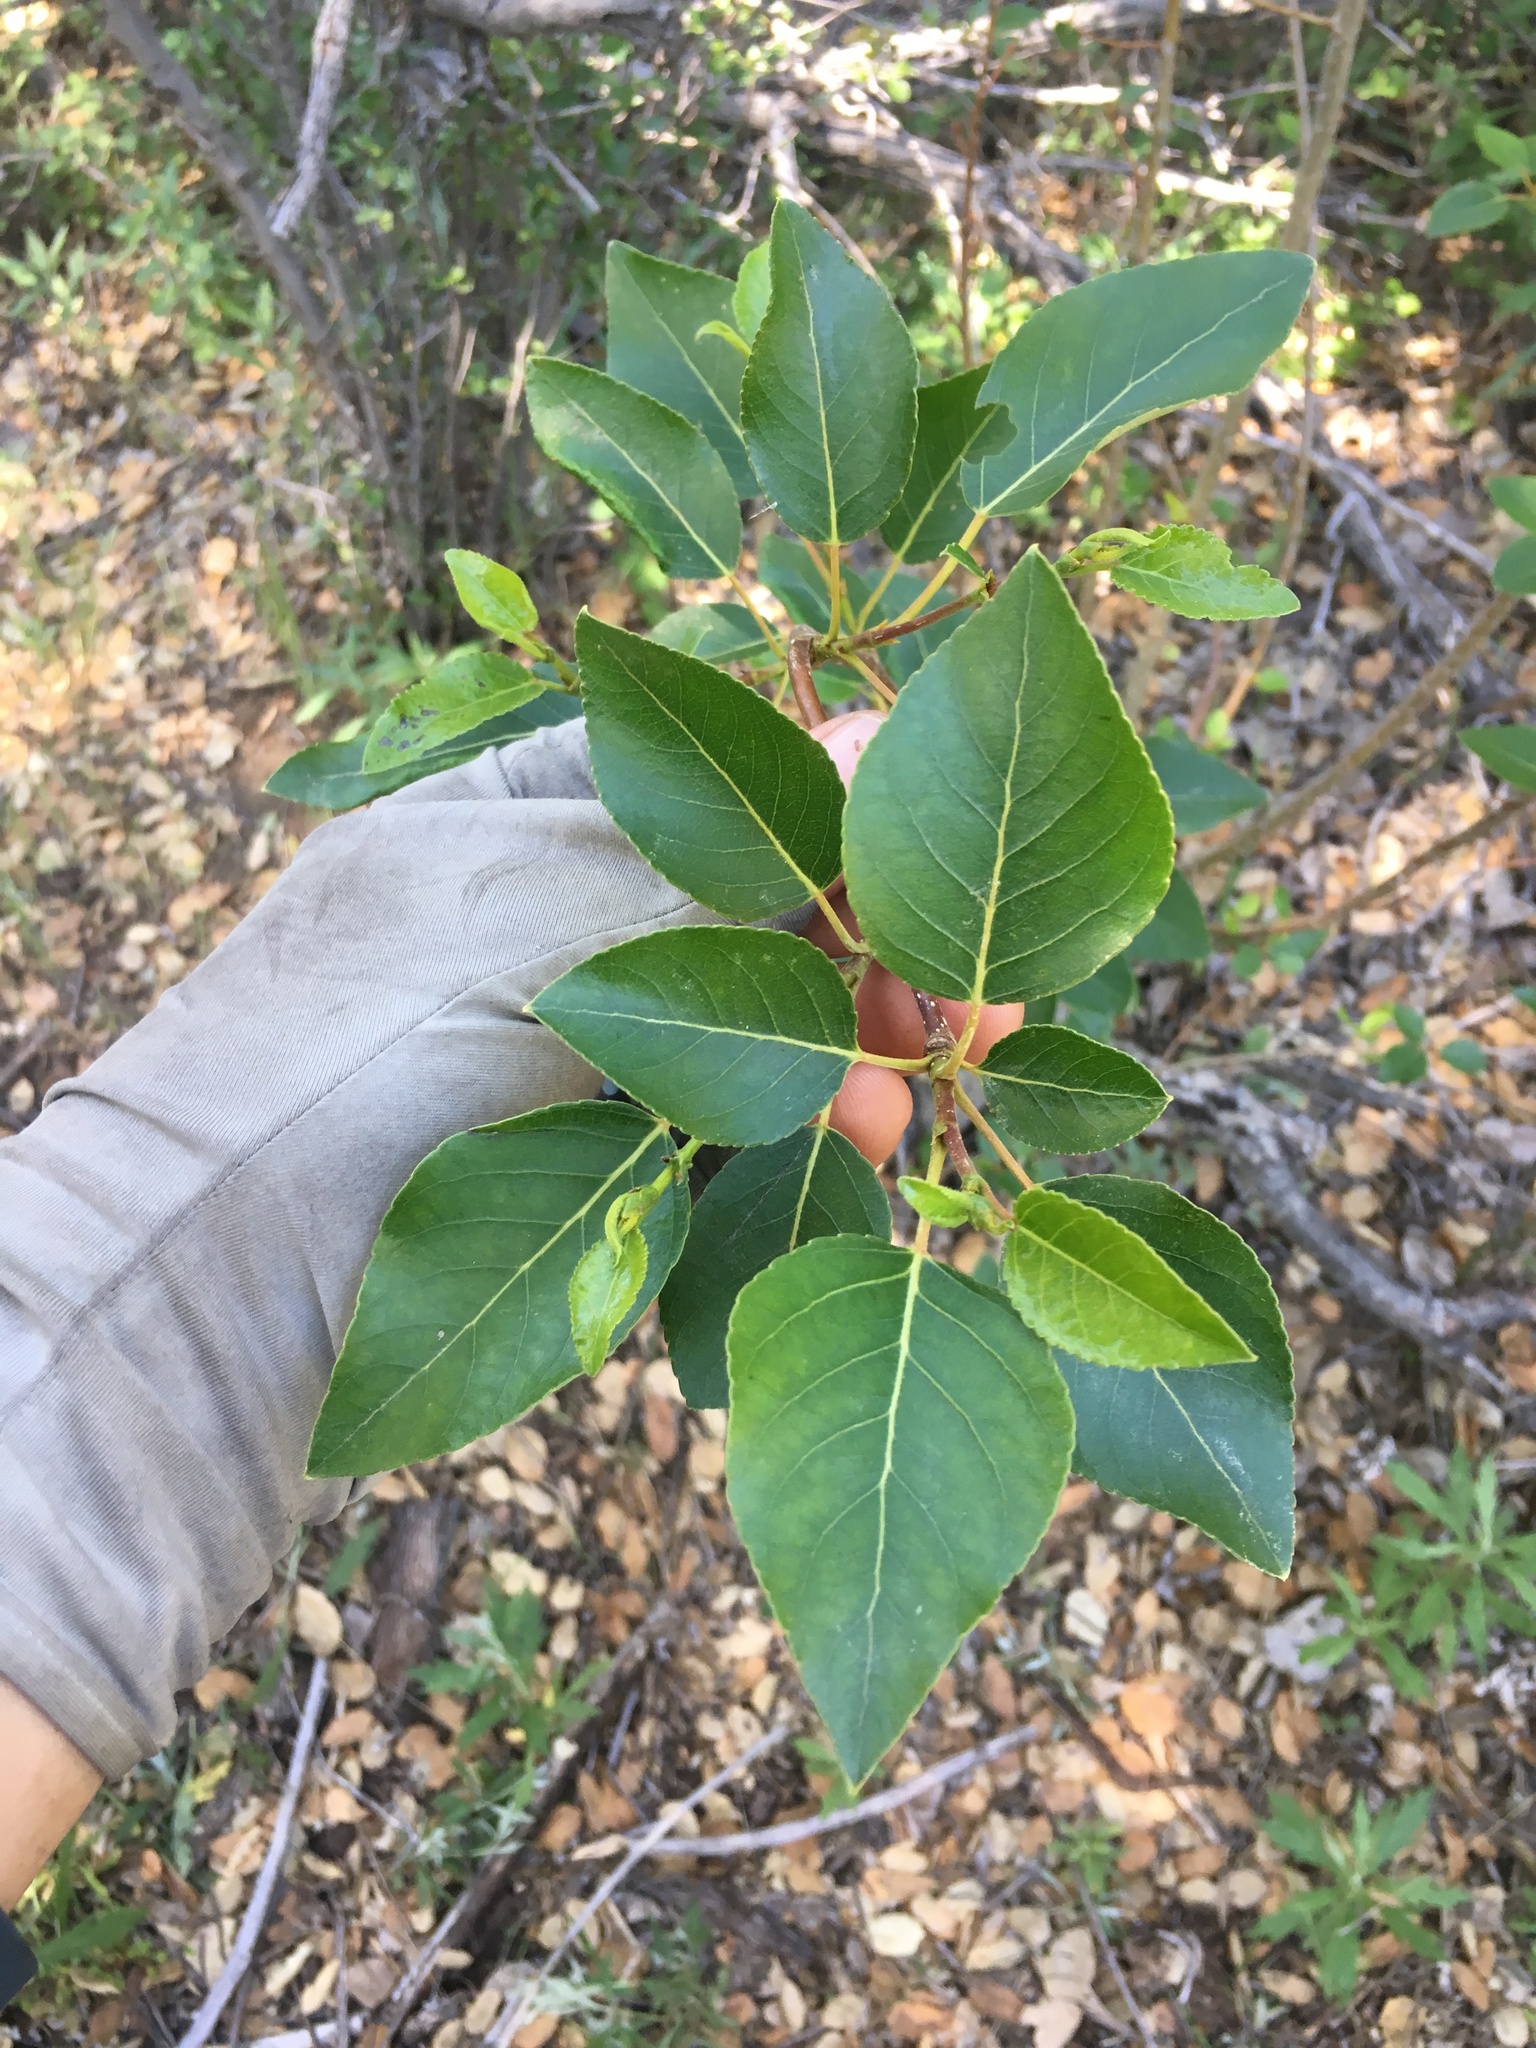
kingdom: Plantae
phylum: Tracheophyta
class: Magnoliopsida
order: Malpighiales
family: Salicaceae
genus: Populus
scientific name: Populus trichocarpa
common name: Black cottonwood
